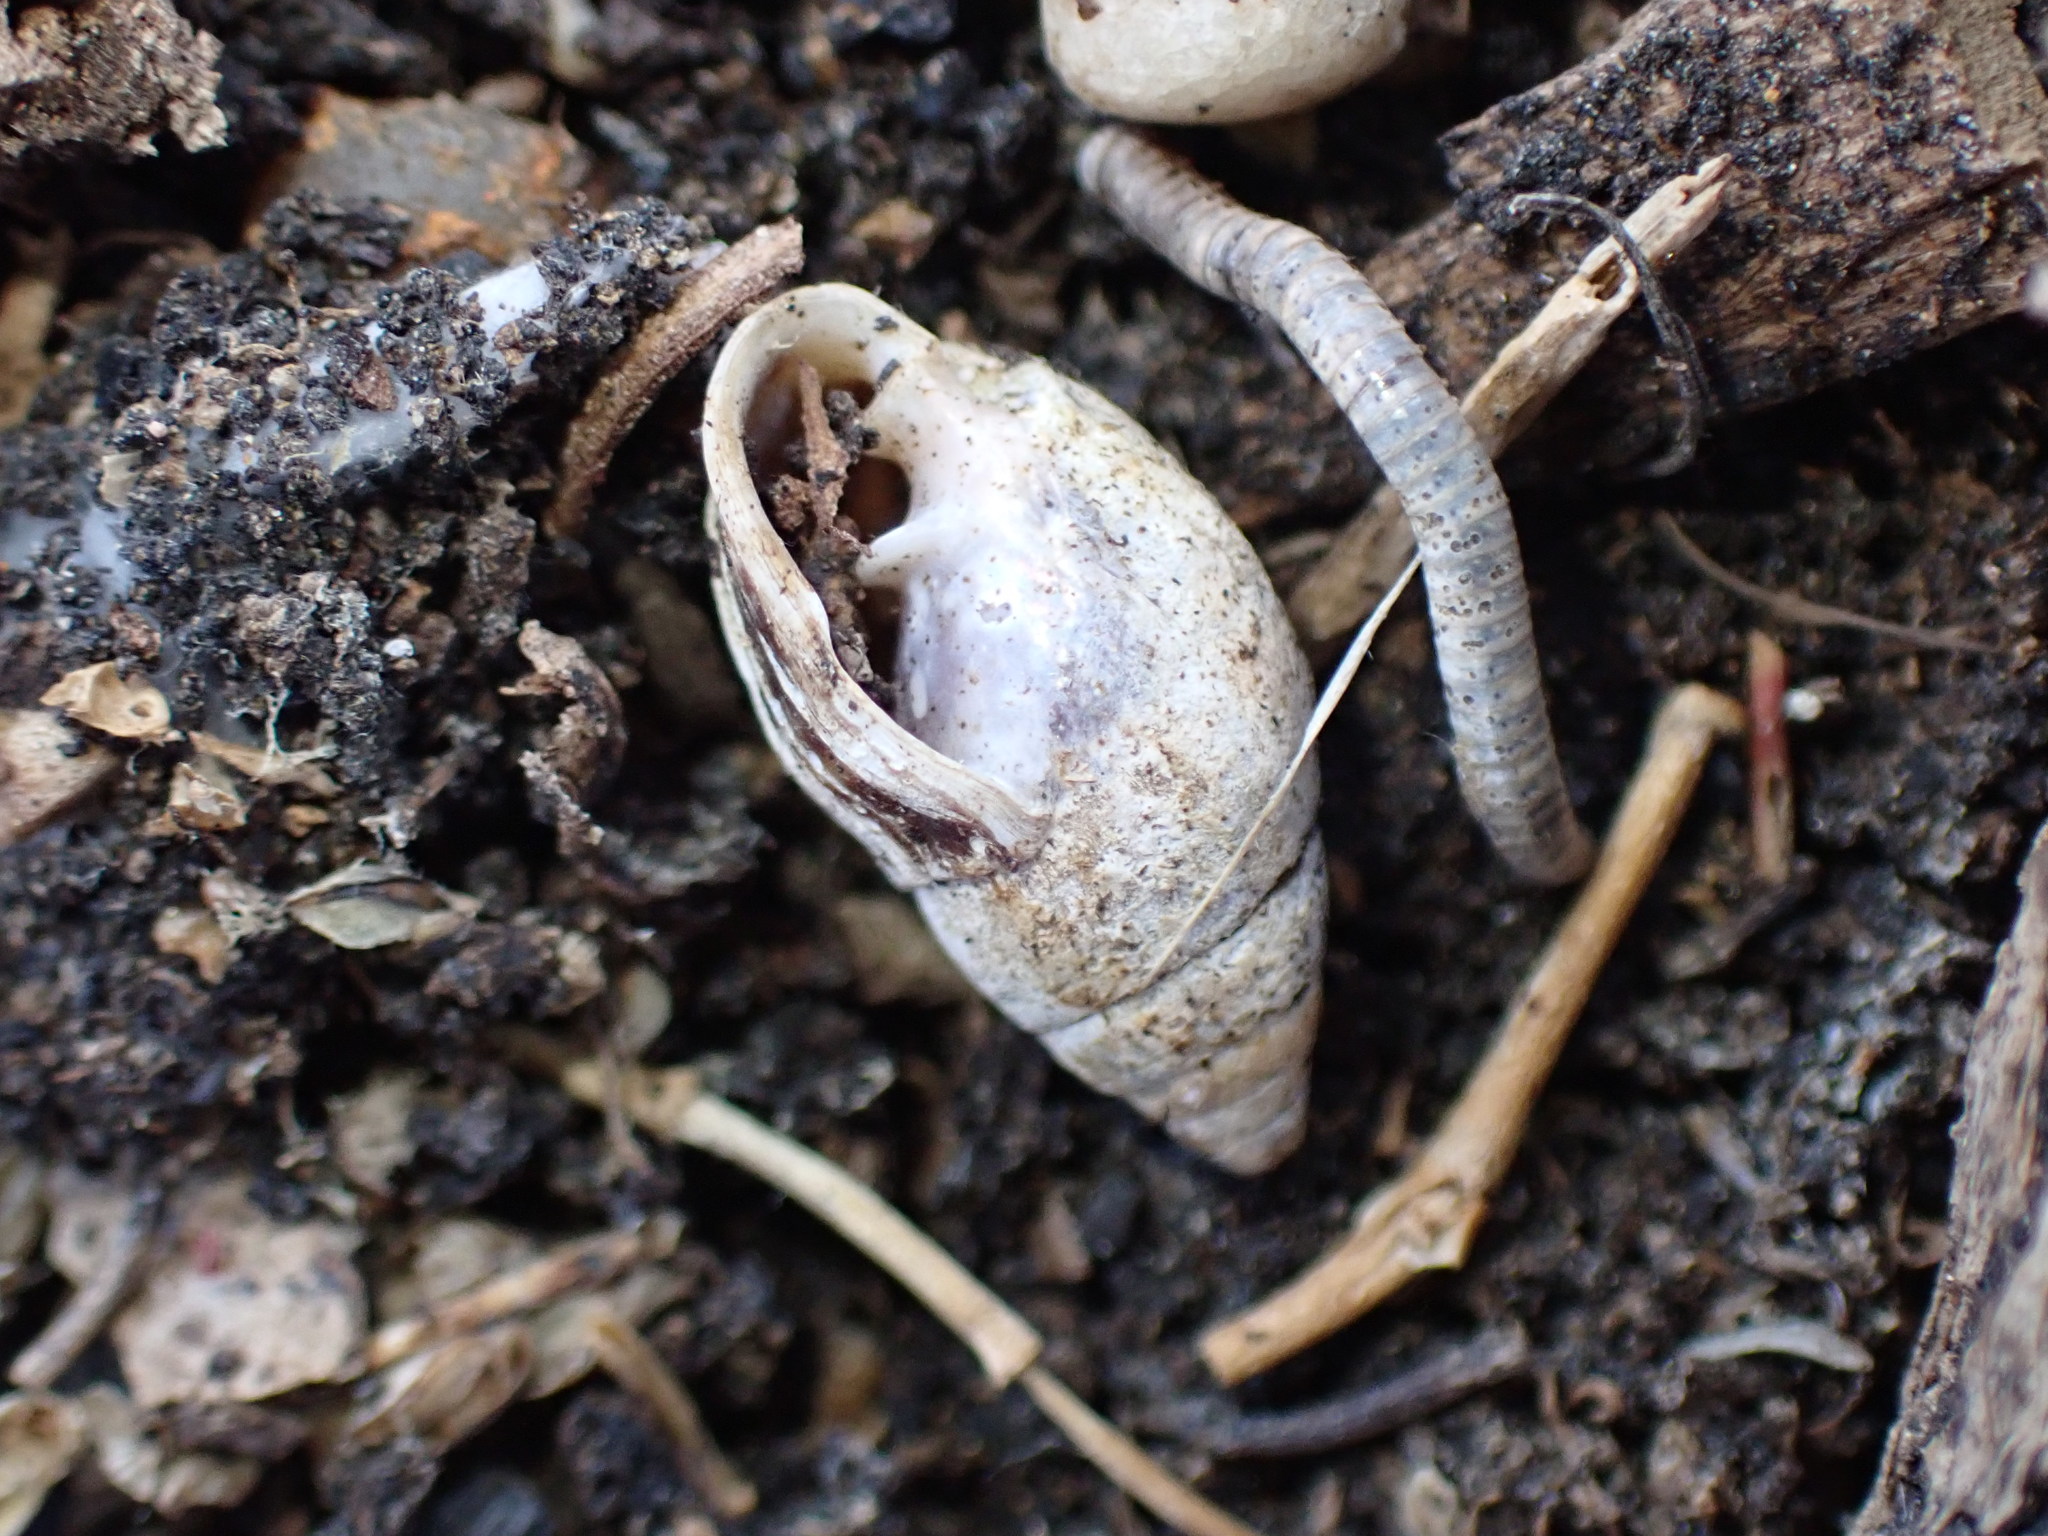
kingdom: Animalia
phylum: Mollusca
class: Gastropoda
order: Ellobiida
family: Ellobiidae
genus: Pleuroloba
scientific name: Pleuroloba costellaris
